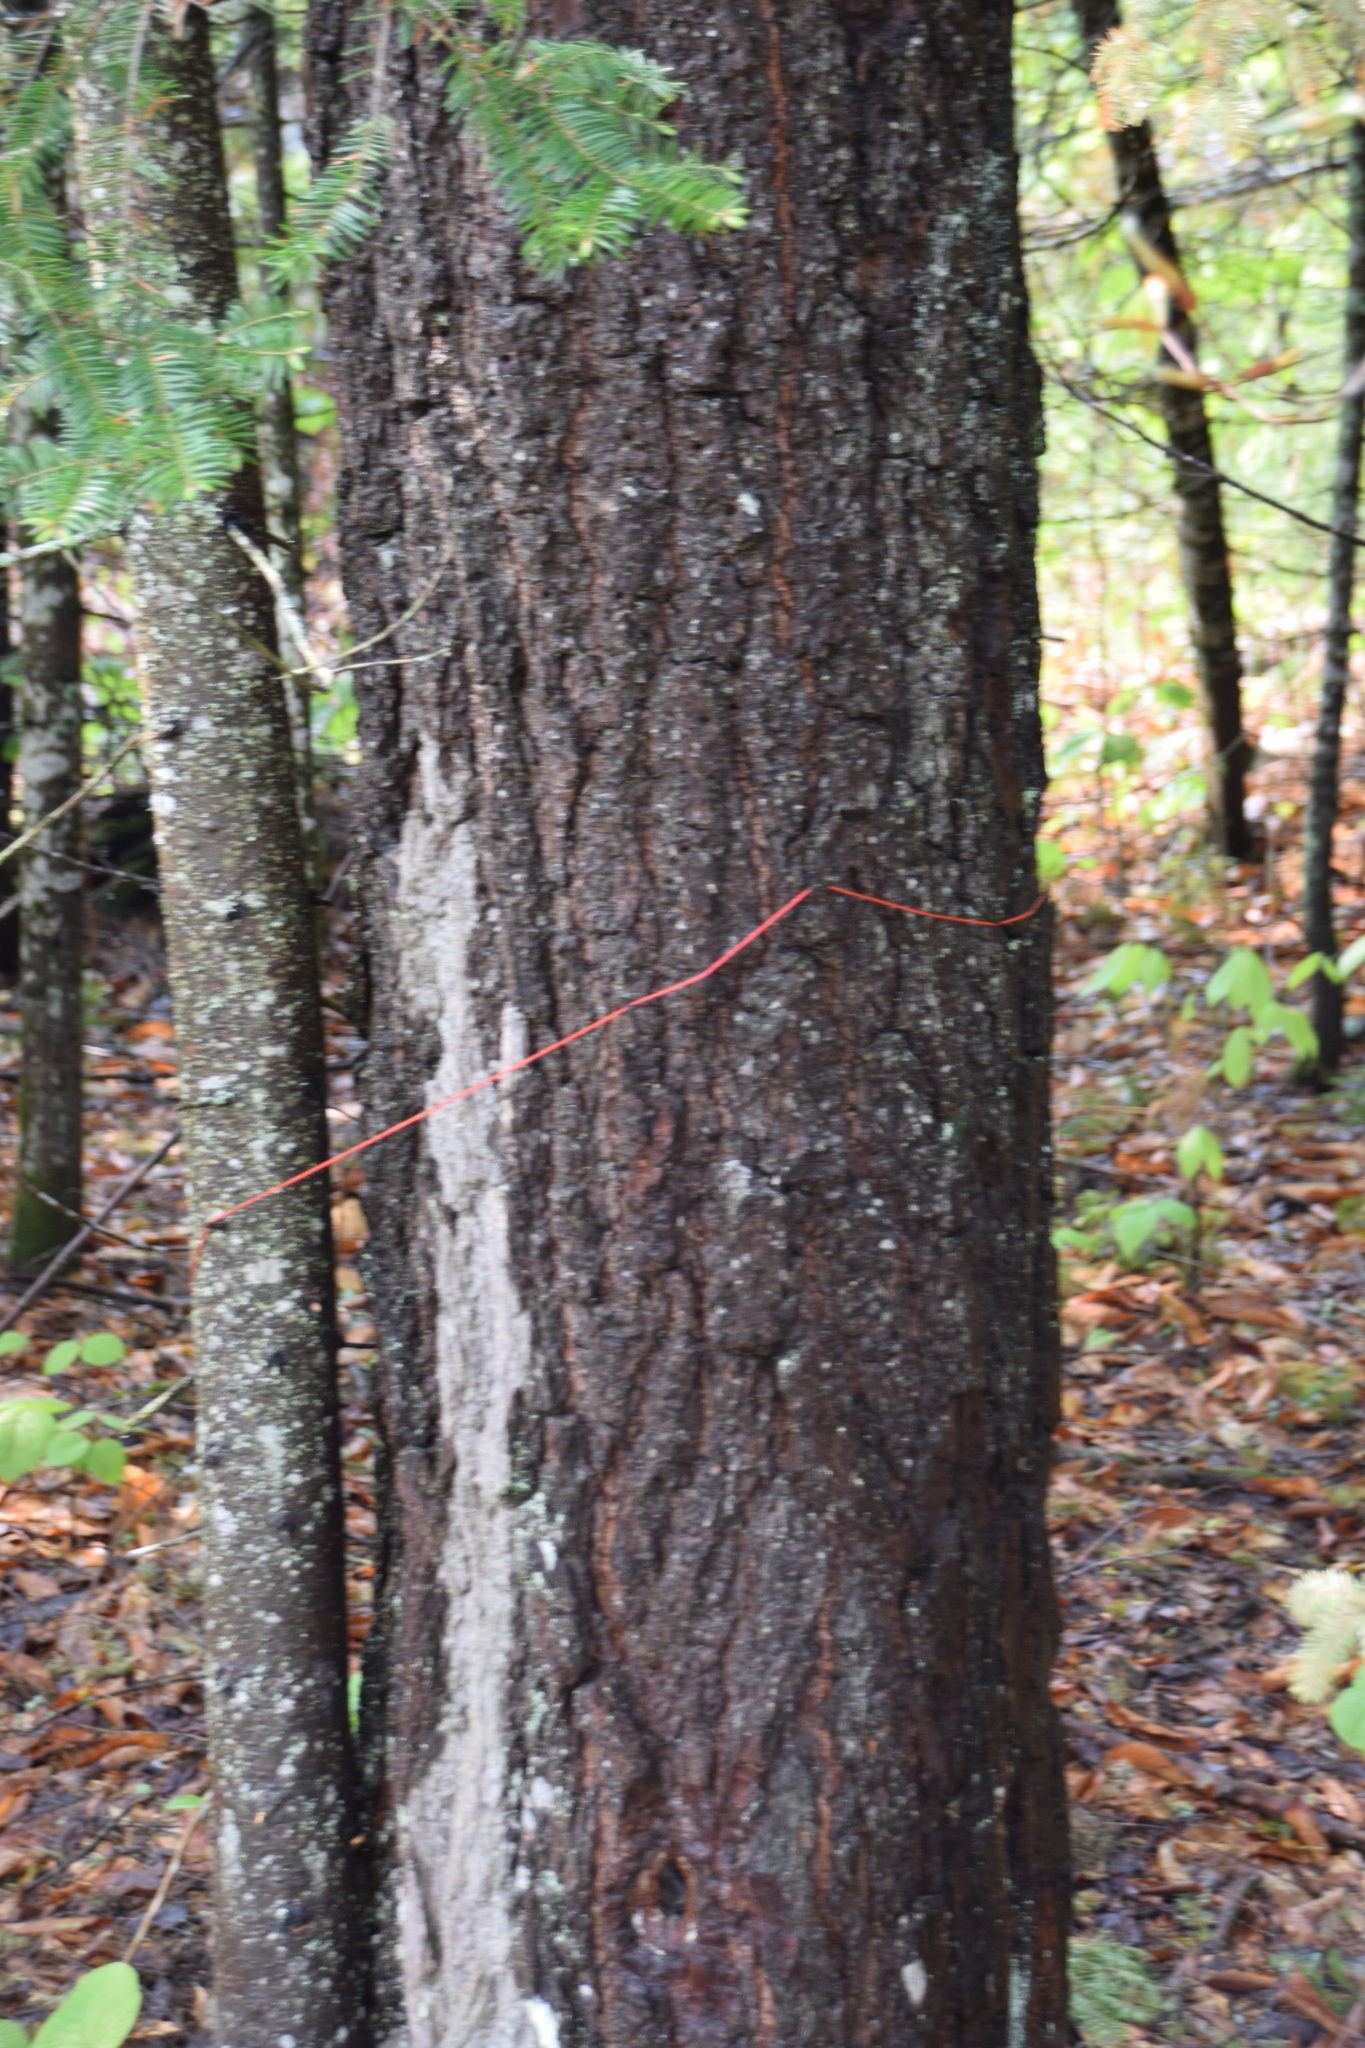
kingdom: Plantae
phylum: Tracheophyta
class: Pinopsida
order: Pinales
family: Pinaceae
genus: Tsuga
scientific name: Tsuga canadensis
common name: Eastern hemlock
